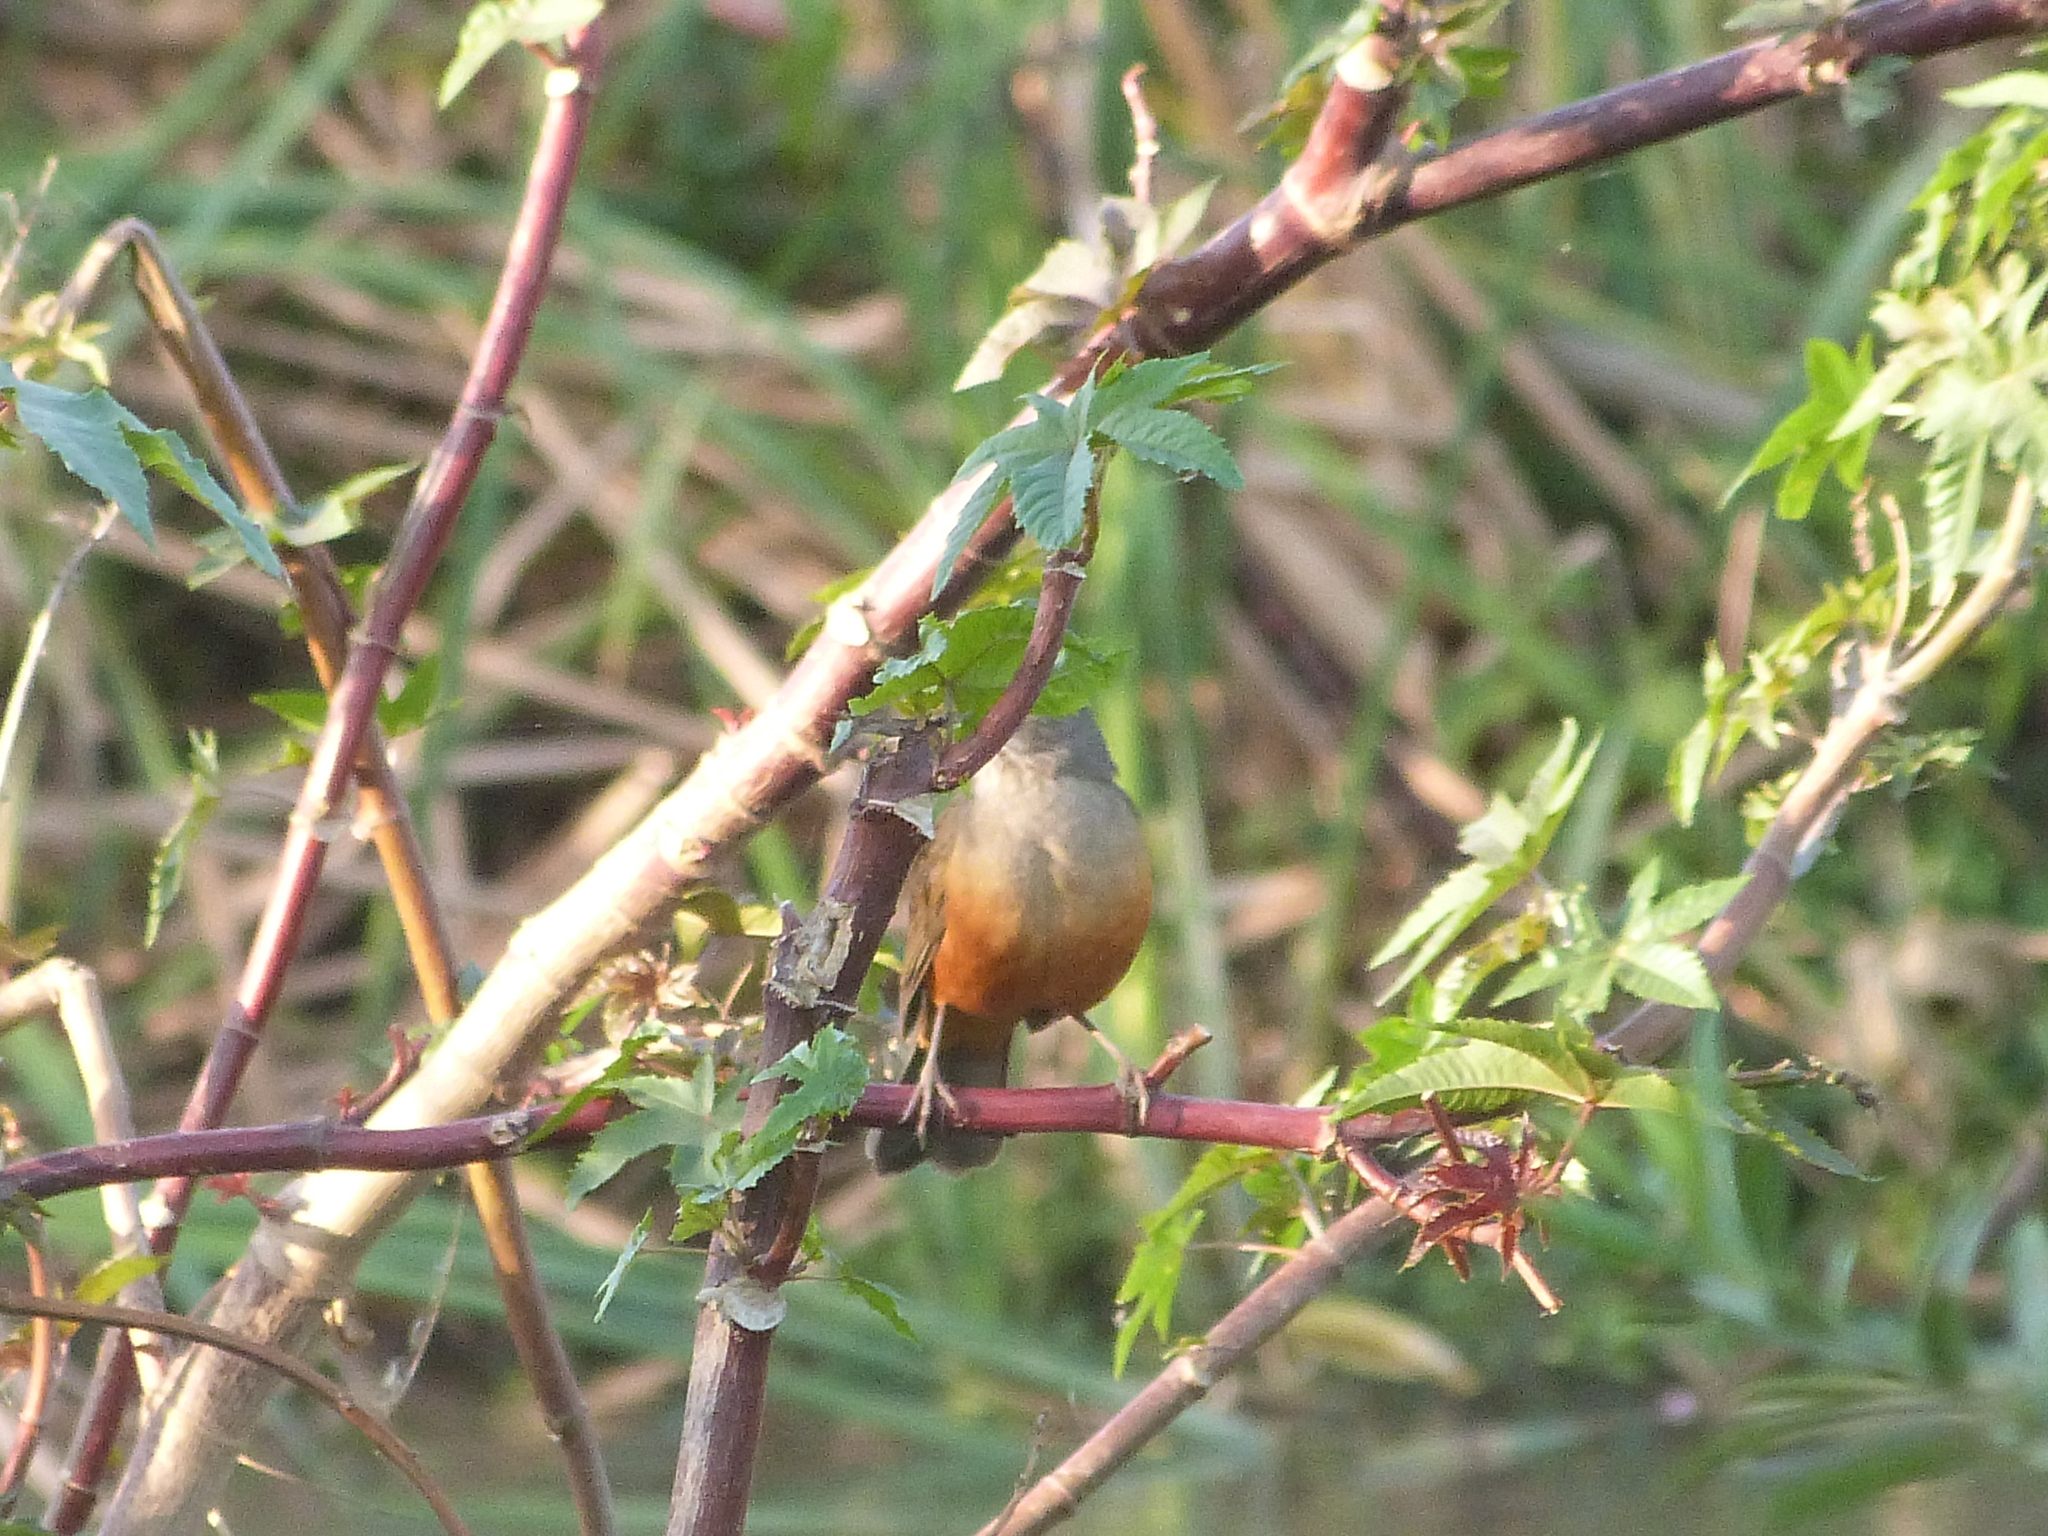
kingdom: Animalia
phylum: Chordata
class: Aves
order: Passeriformes
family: Turdidae
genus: Turdus
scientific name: Turdus rufiventris
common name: Rufous-bellied thrush
